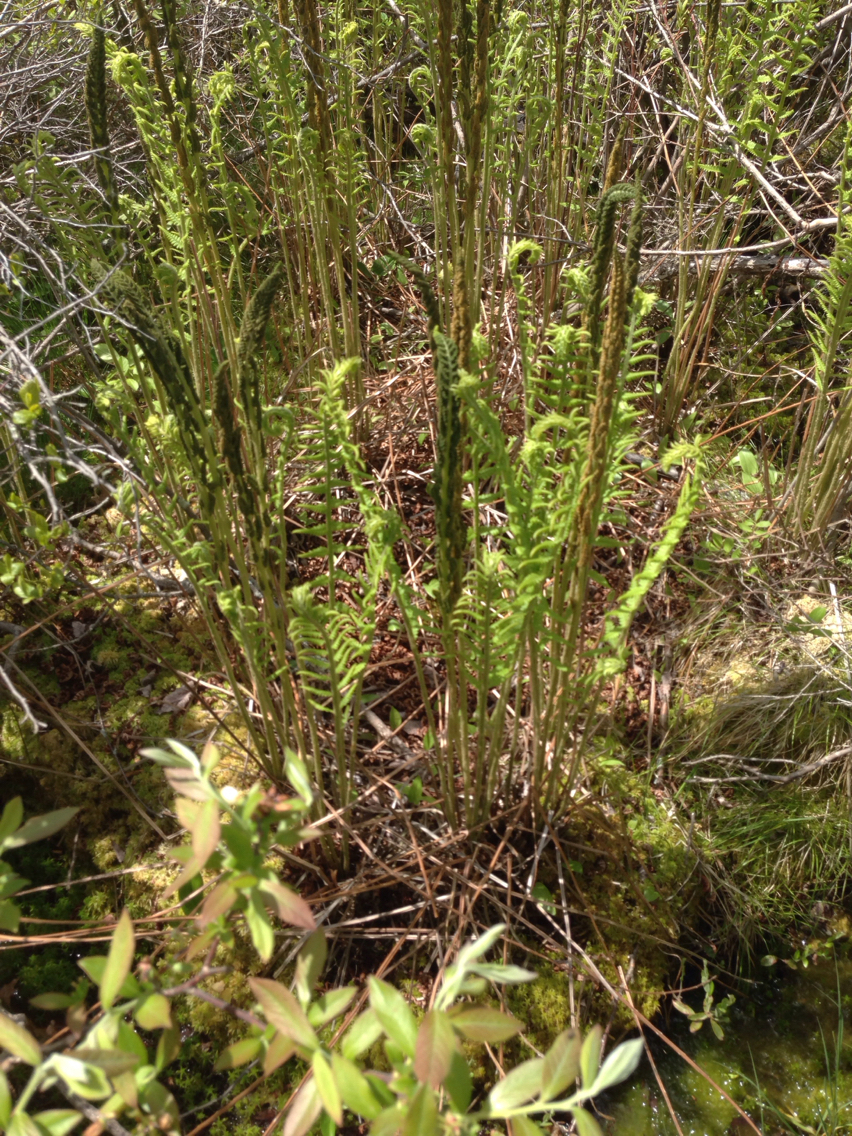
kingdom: Plantae
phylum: Tracheophyta
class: Polypodiopsida
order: Osmundales
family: Osmundaceae
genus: Osmundastrum
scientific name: Osmundastrum cinnamomeum
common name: Cinnamon fern
